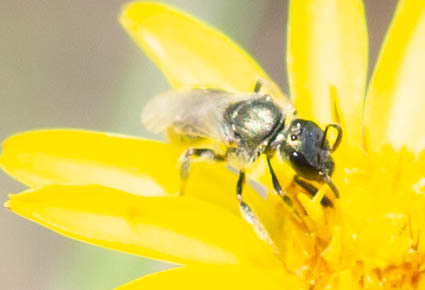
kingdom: Animalia
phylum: Arthropoda
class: Insecta
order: Hymenoptera
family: Halictidae
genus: Lasioglossum
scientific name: Lasioglossum longifrons
